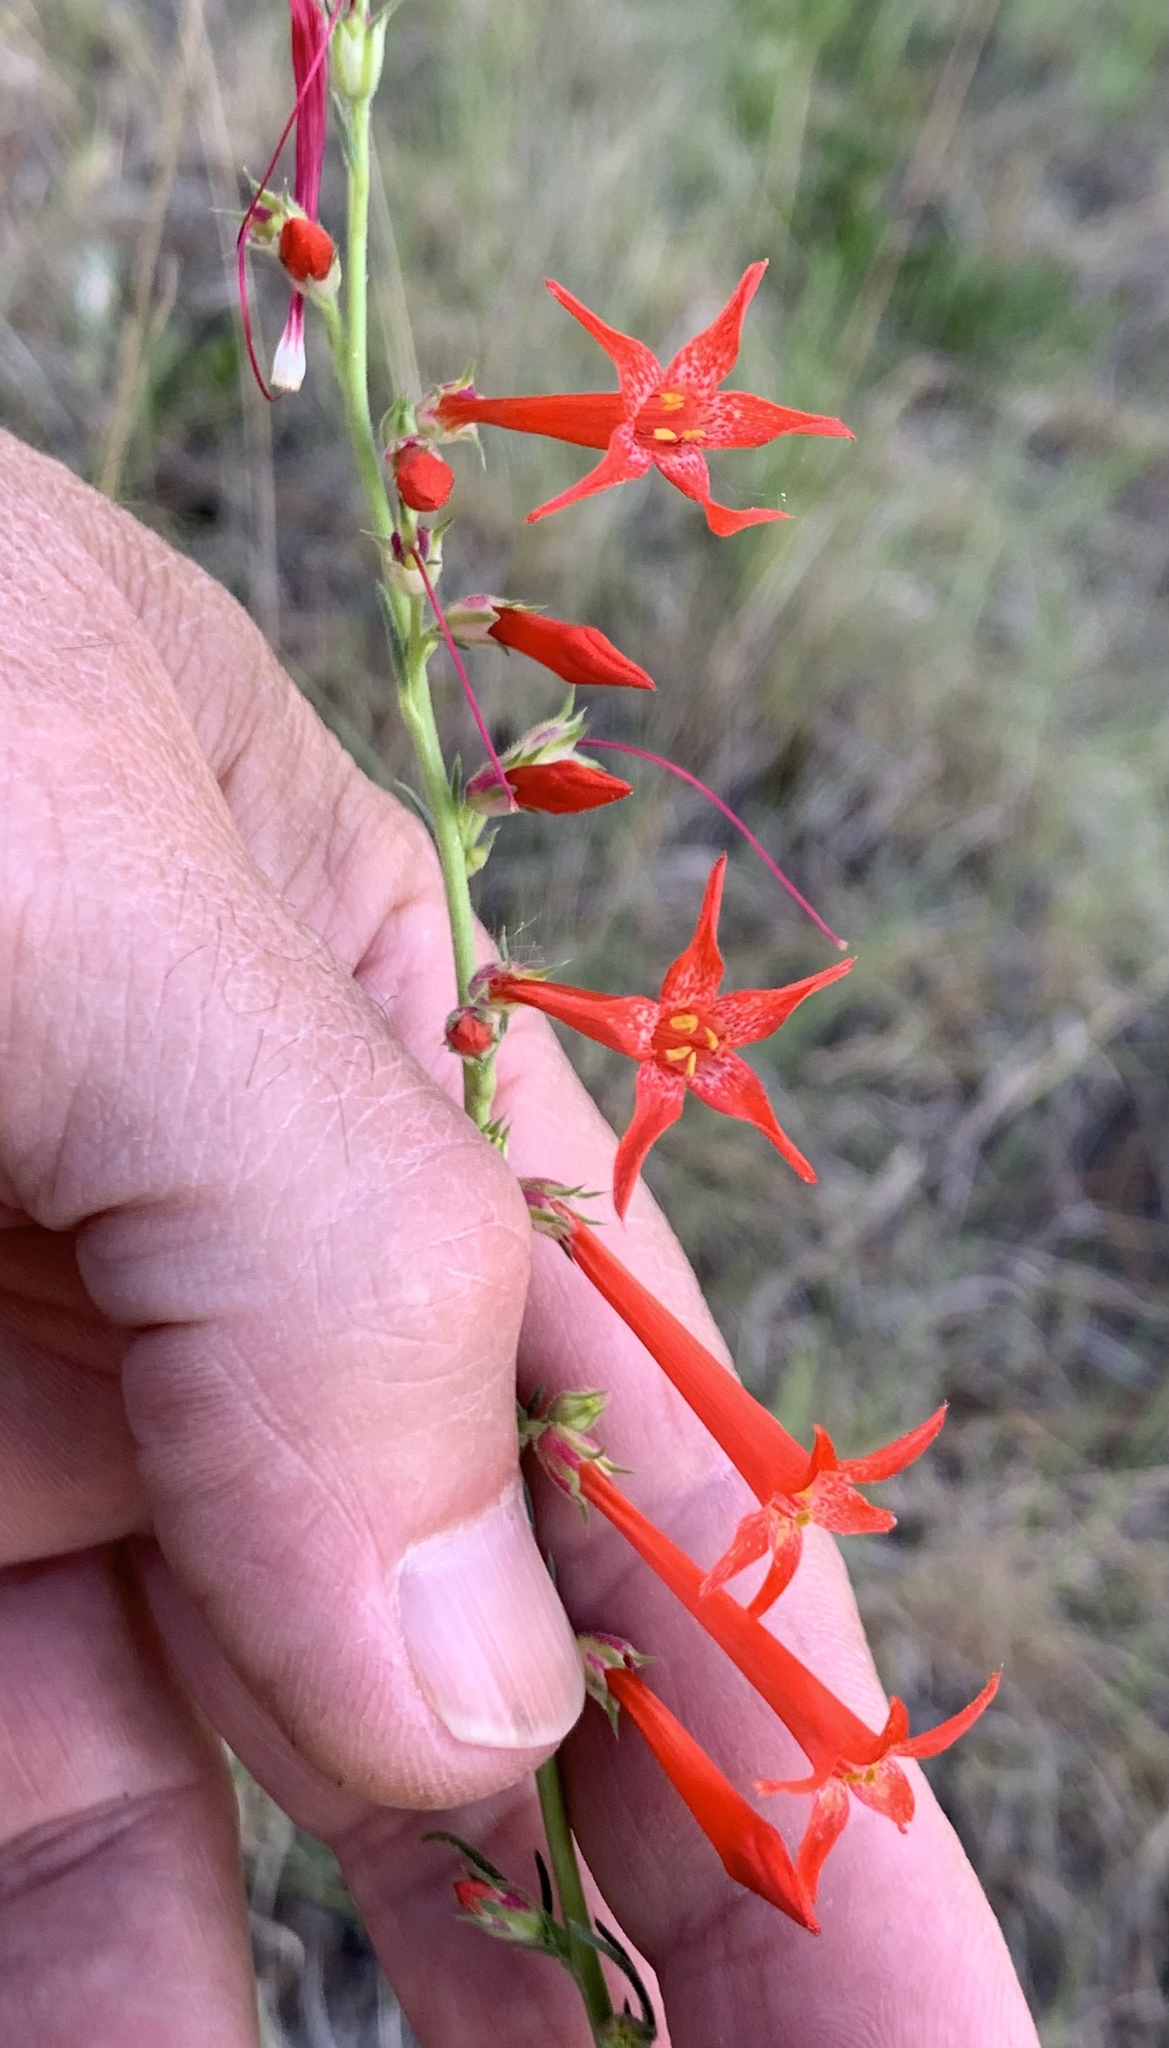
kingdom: Plantae
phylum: Tracheophyta
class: Magnoliopsida
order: Ericales
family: Polemoniaceae
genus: Ipomopsis
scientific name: Ipomopsis aggregata
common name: Scarlet gilia
